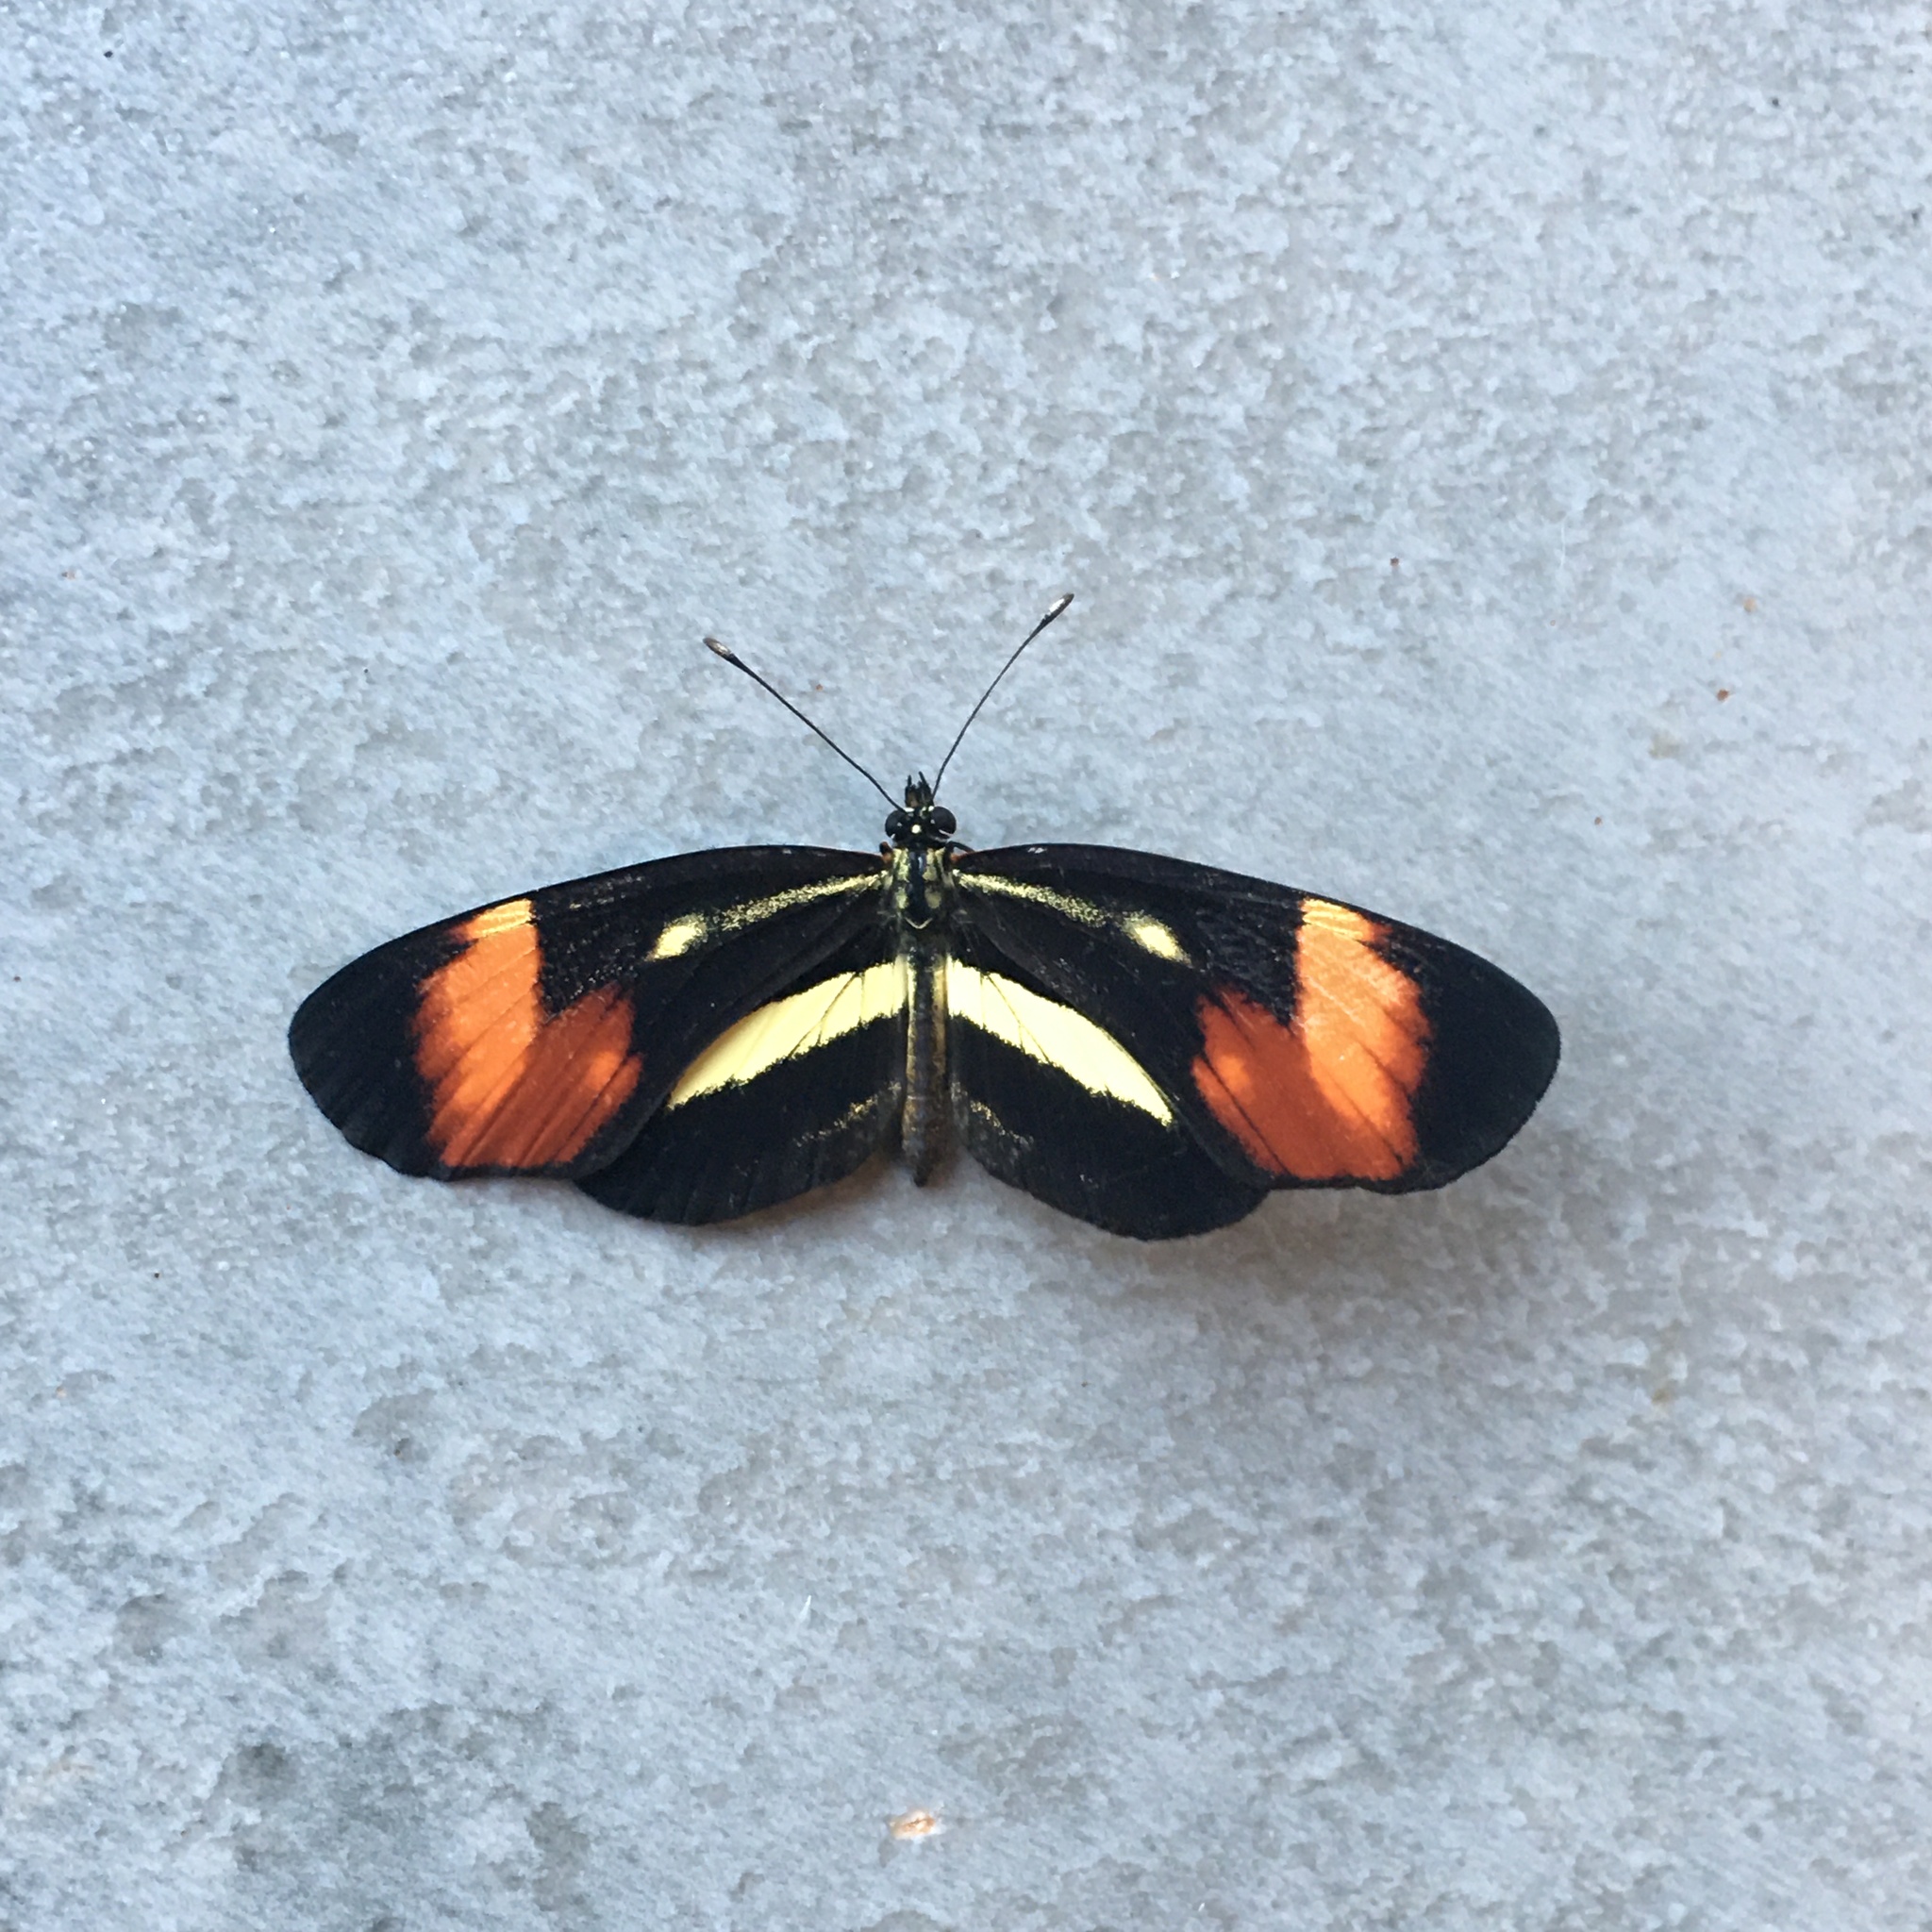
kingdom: Animalia
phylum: Arthropoda
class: Insecta
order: Lepidoptera
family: Nymphalidae
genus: Eresia
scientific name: Eresia lansdorfi
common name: Lansdorf's crescent
